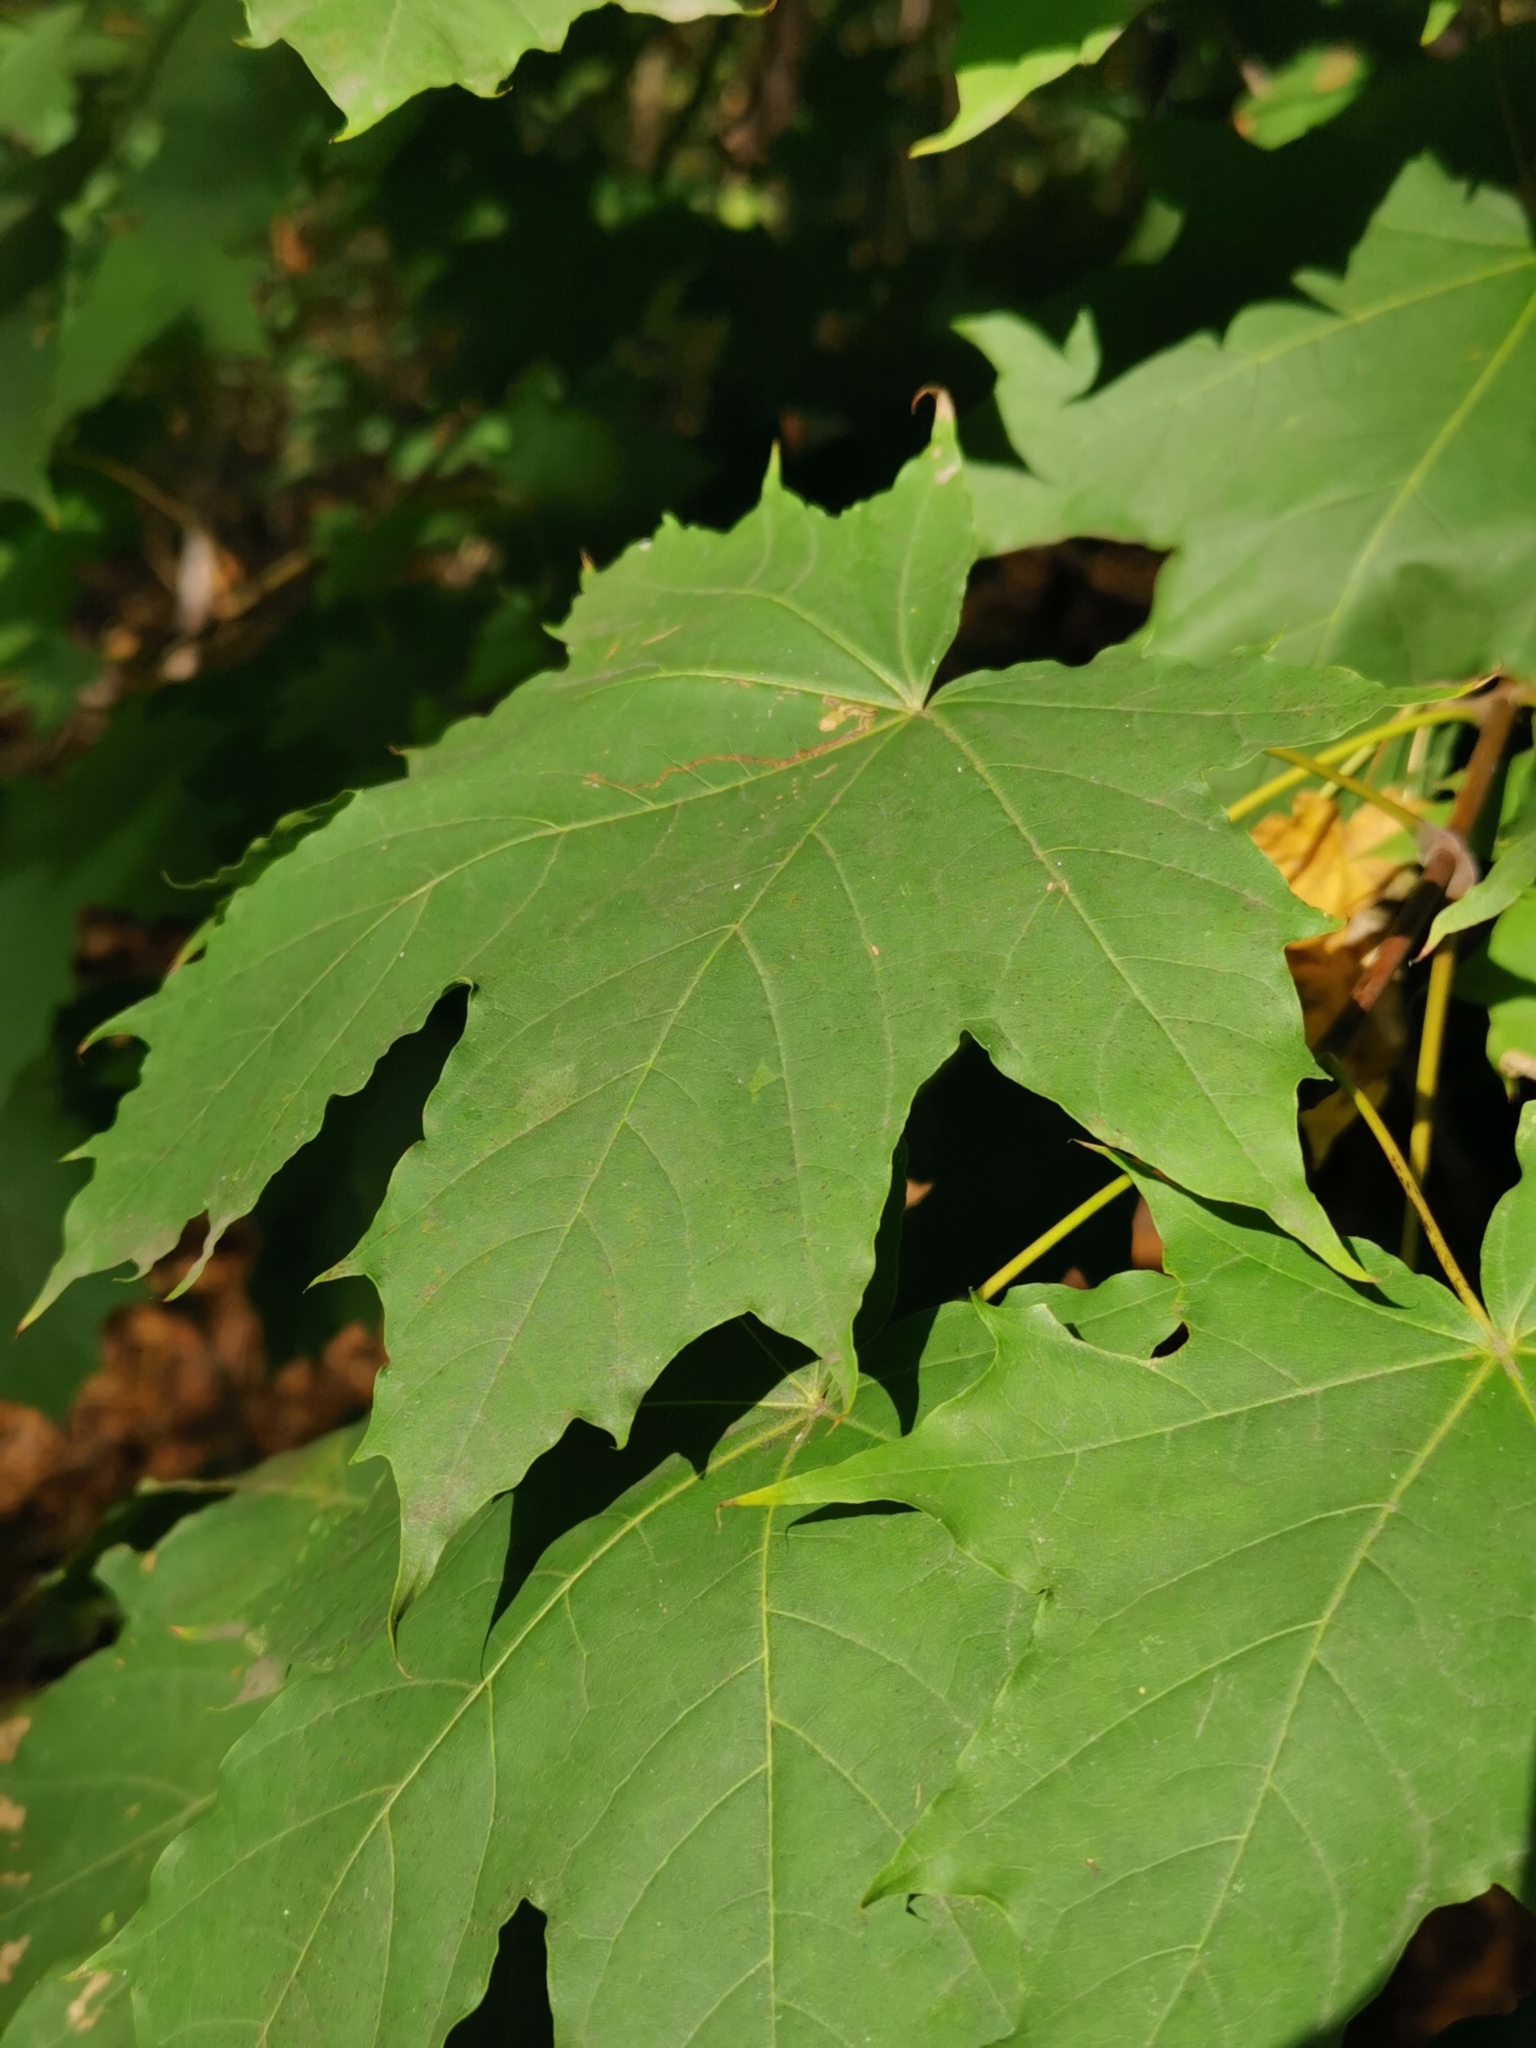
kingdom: Plantae
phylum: Tracheophyta
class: Magnoliopsida
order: Sapindales
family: Sapindaceae
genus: Acer
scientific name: Acer platanoides
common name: Norway maple
